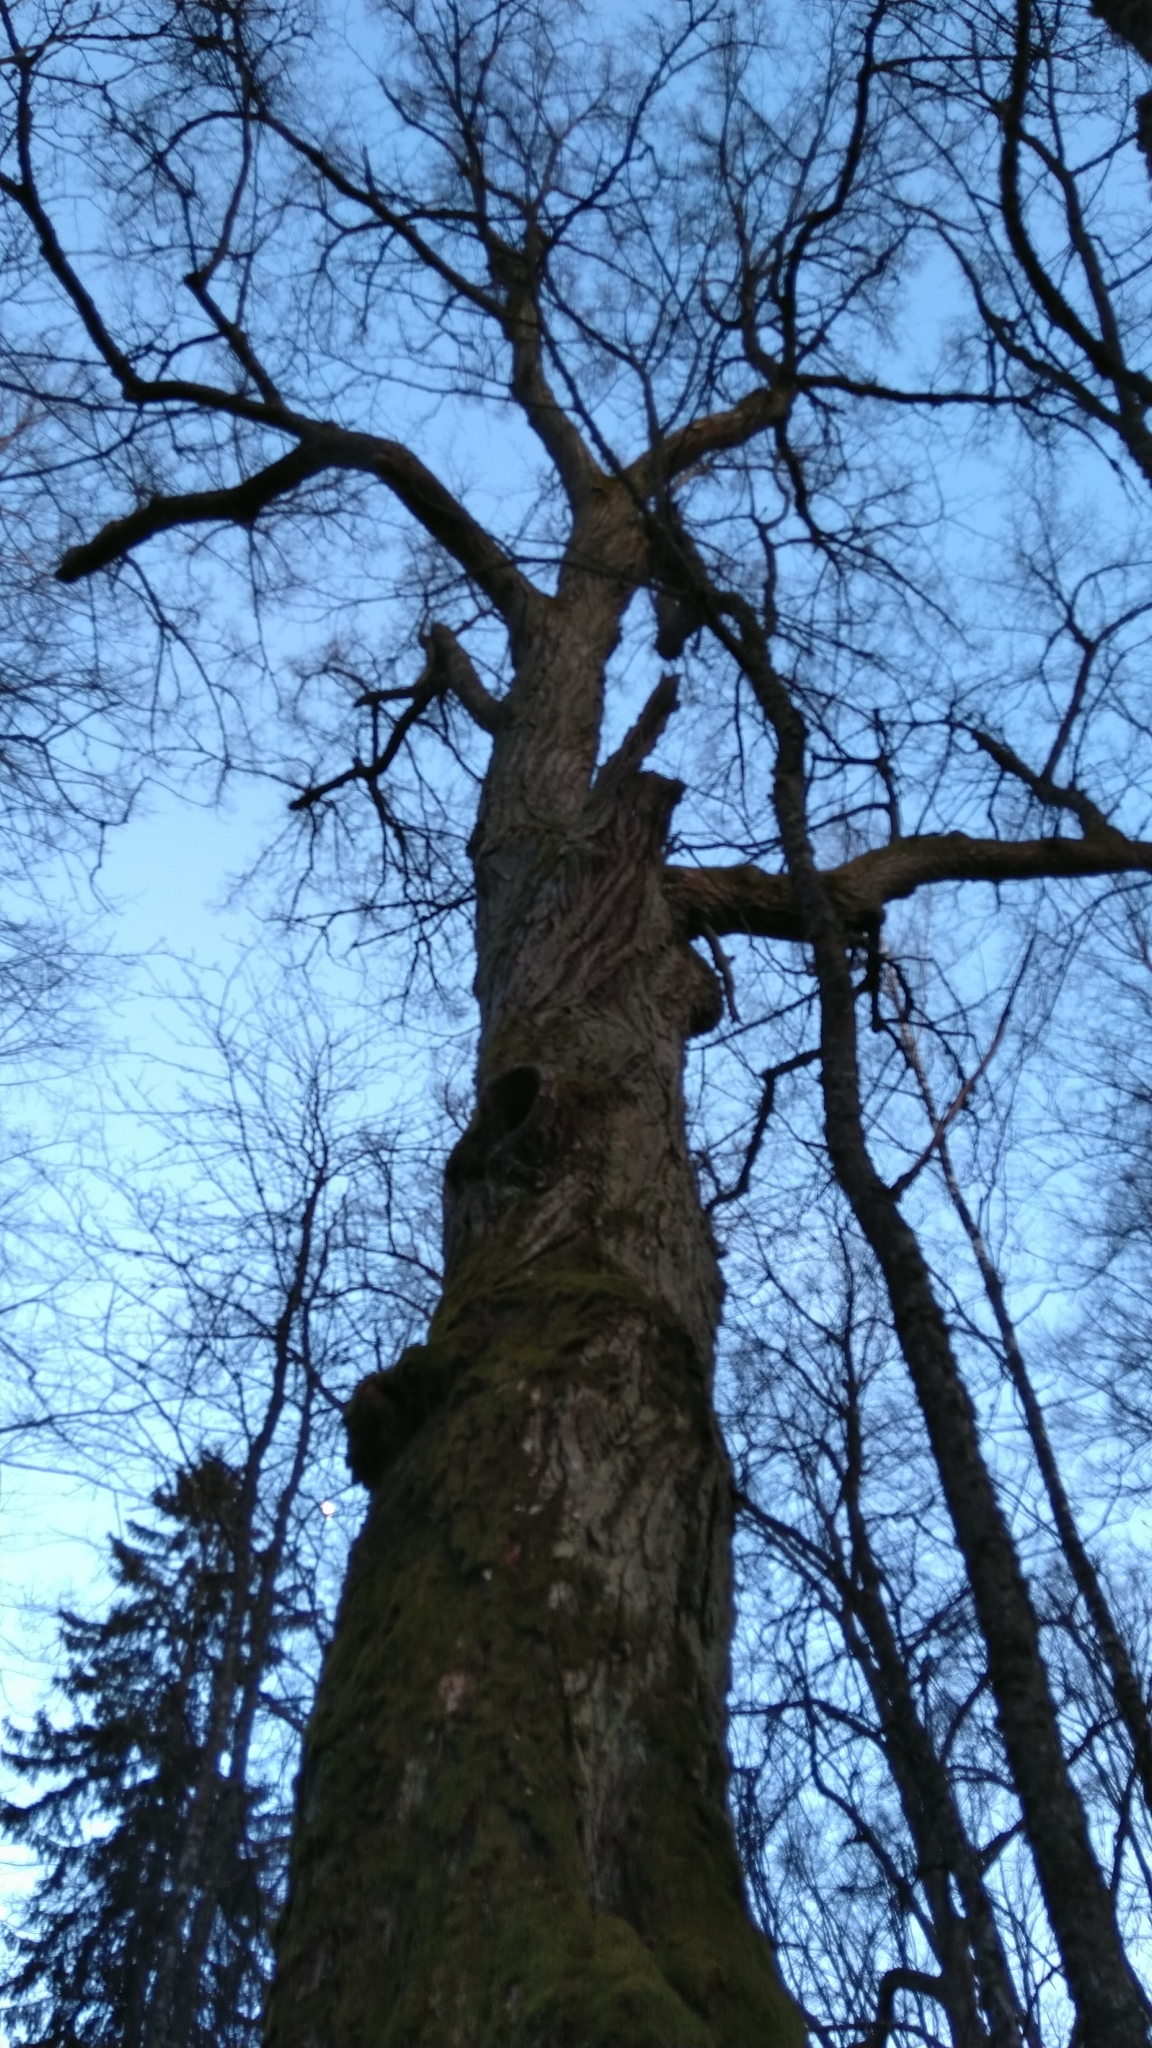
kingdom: Plantae
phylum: Tracheophyta
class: Magnoliopsida
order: Malvales
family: Malvaceae
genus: Tilia
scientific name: Tilia cordata
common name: Small-leaved lime
